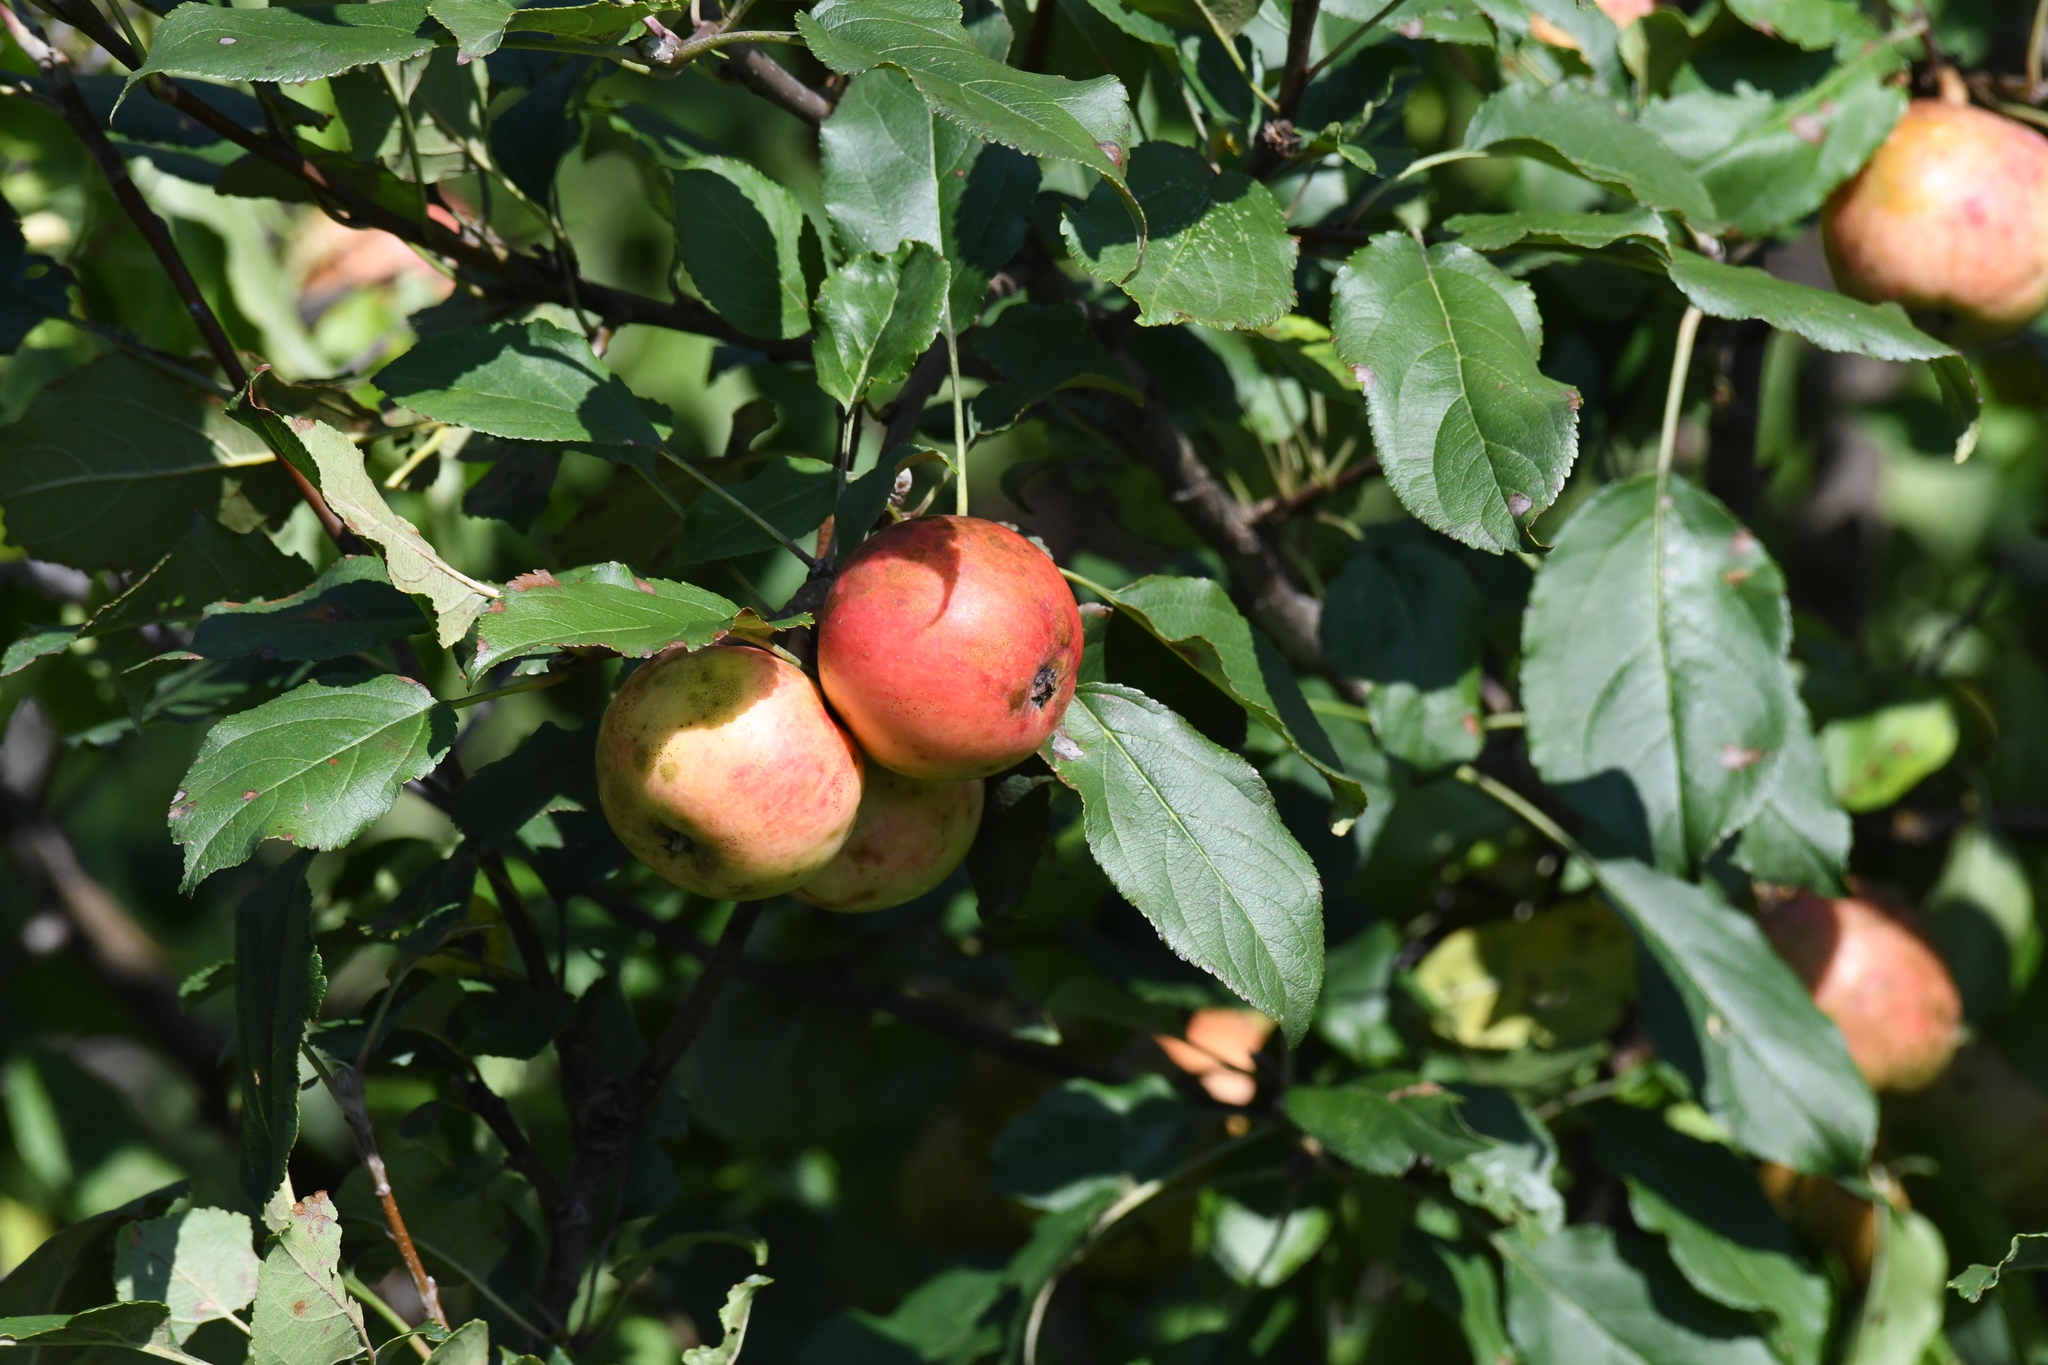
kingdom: Plantae
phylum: Tracheophyta
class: Magnoliopsida
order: Rosales
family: Rosaceae
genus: Malus
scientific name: Malus domestica
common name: Apple
